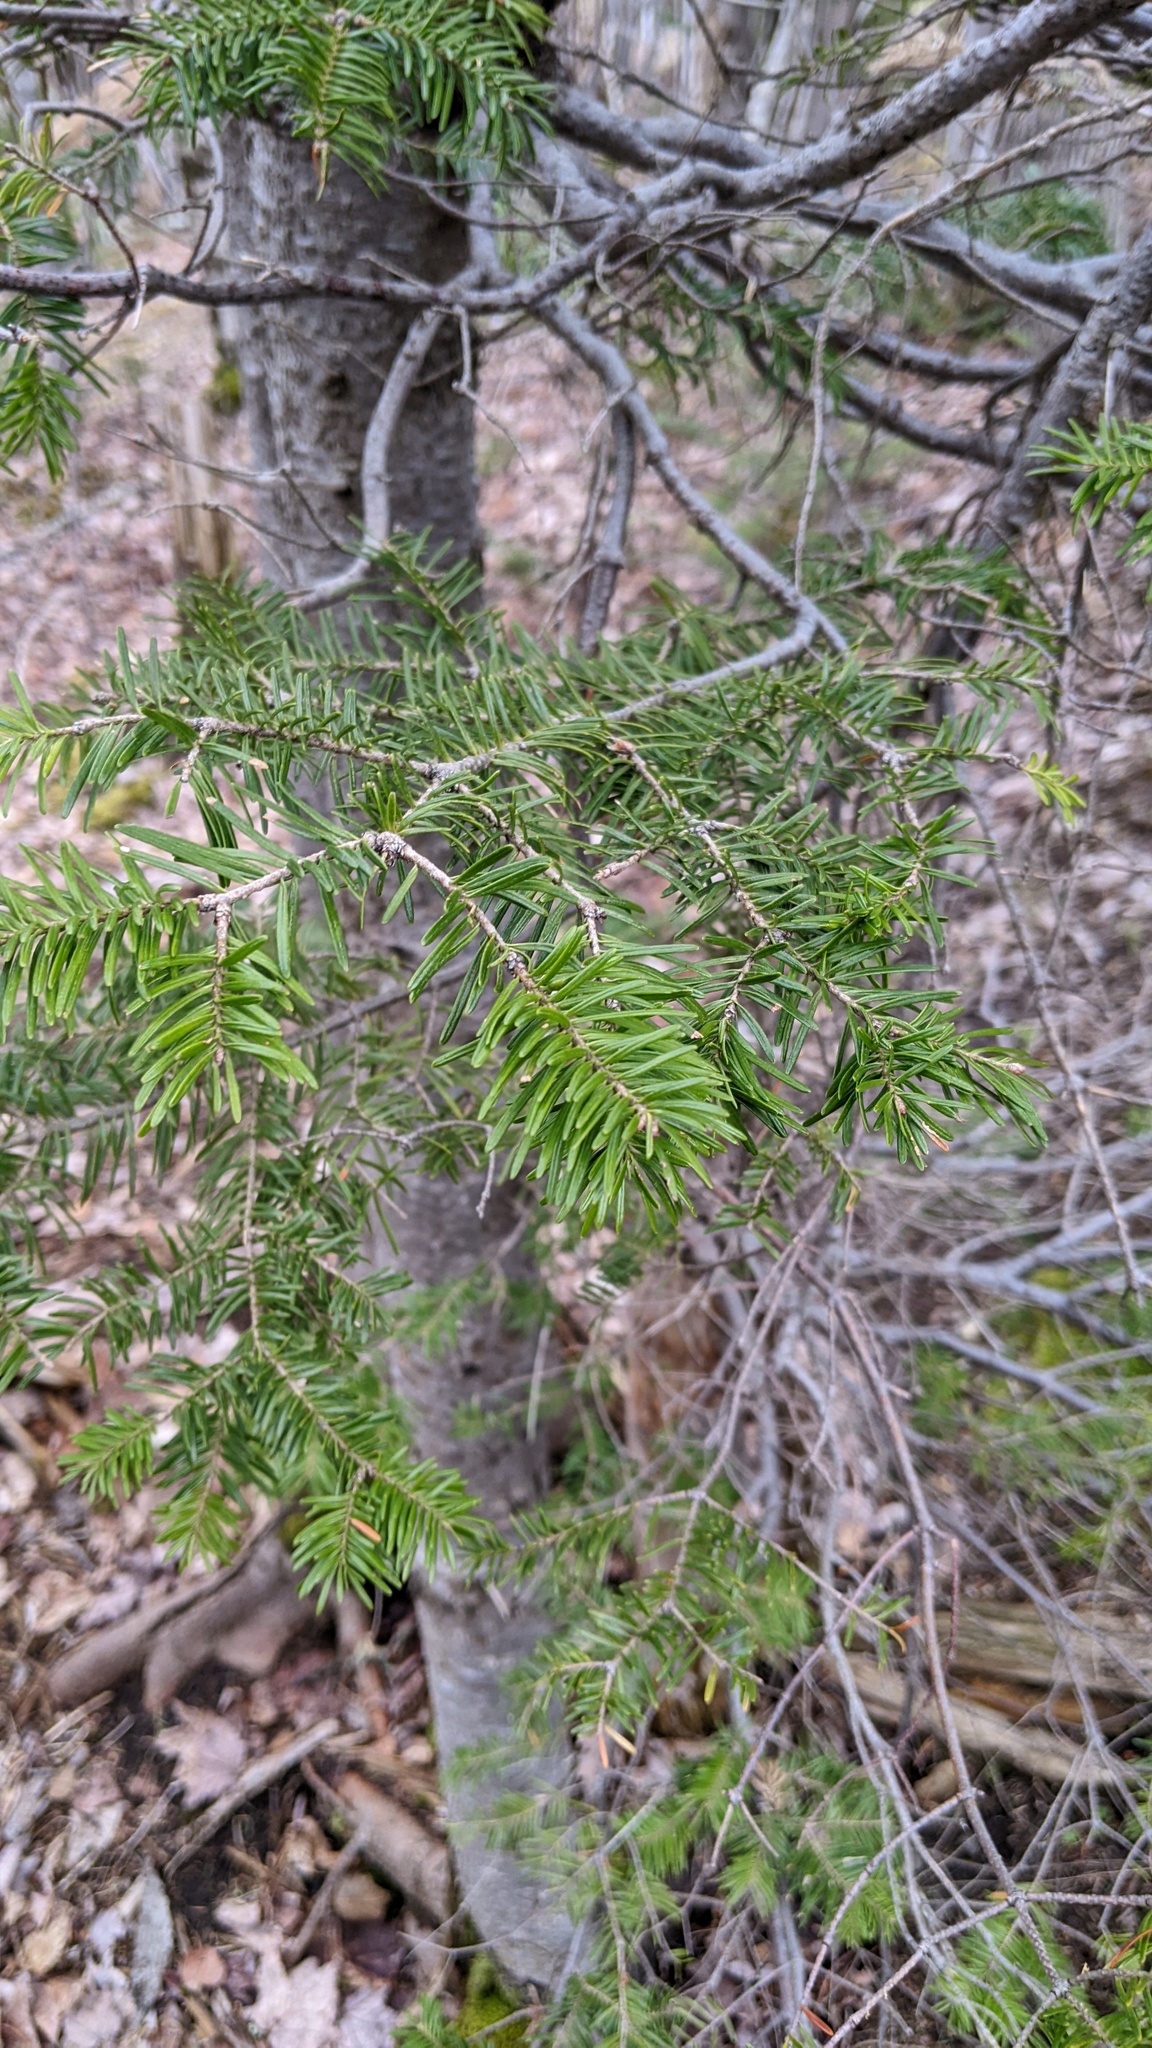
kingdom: Plantae
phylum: Tracheophyta
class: Pinopsida
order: Pinales
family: Pinaceae
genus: Abies
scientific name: Abies balsamea
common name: Balsam fir
